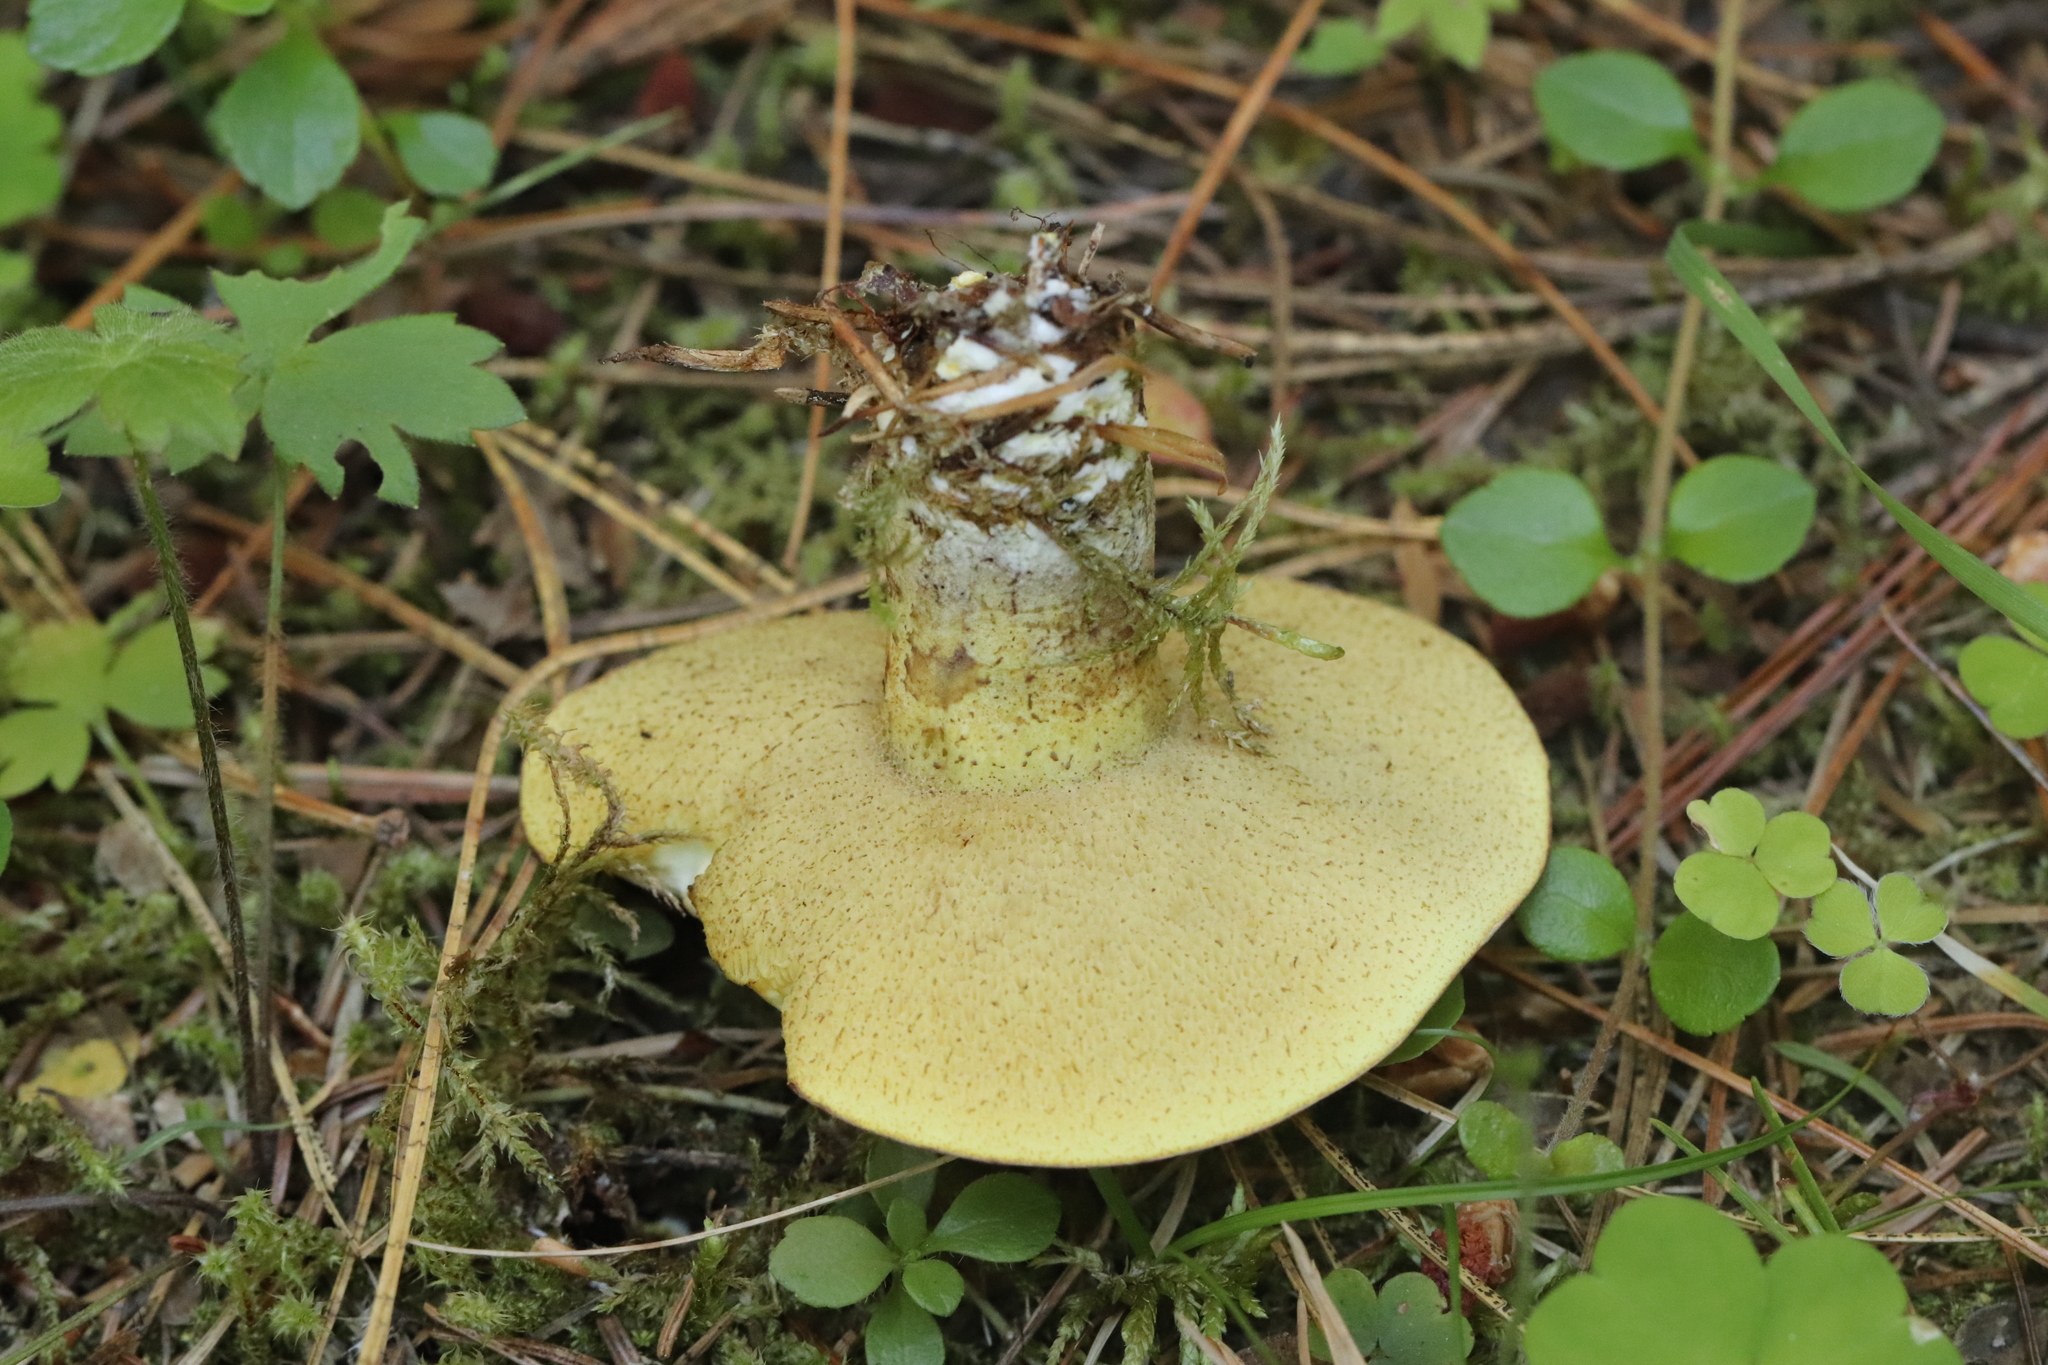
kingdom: Fungi
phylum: Basidiomycota
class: Agaricomycetes
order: Boletales
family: Suillaceae
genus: Suillus
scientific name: Suillus placidus
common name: Slippery white bolete
